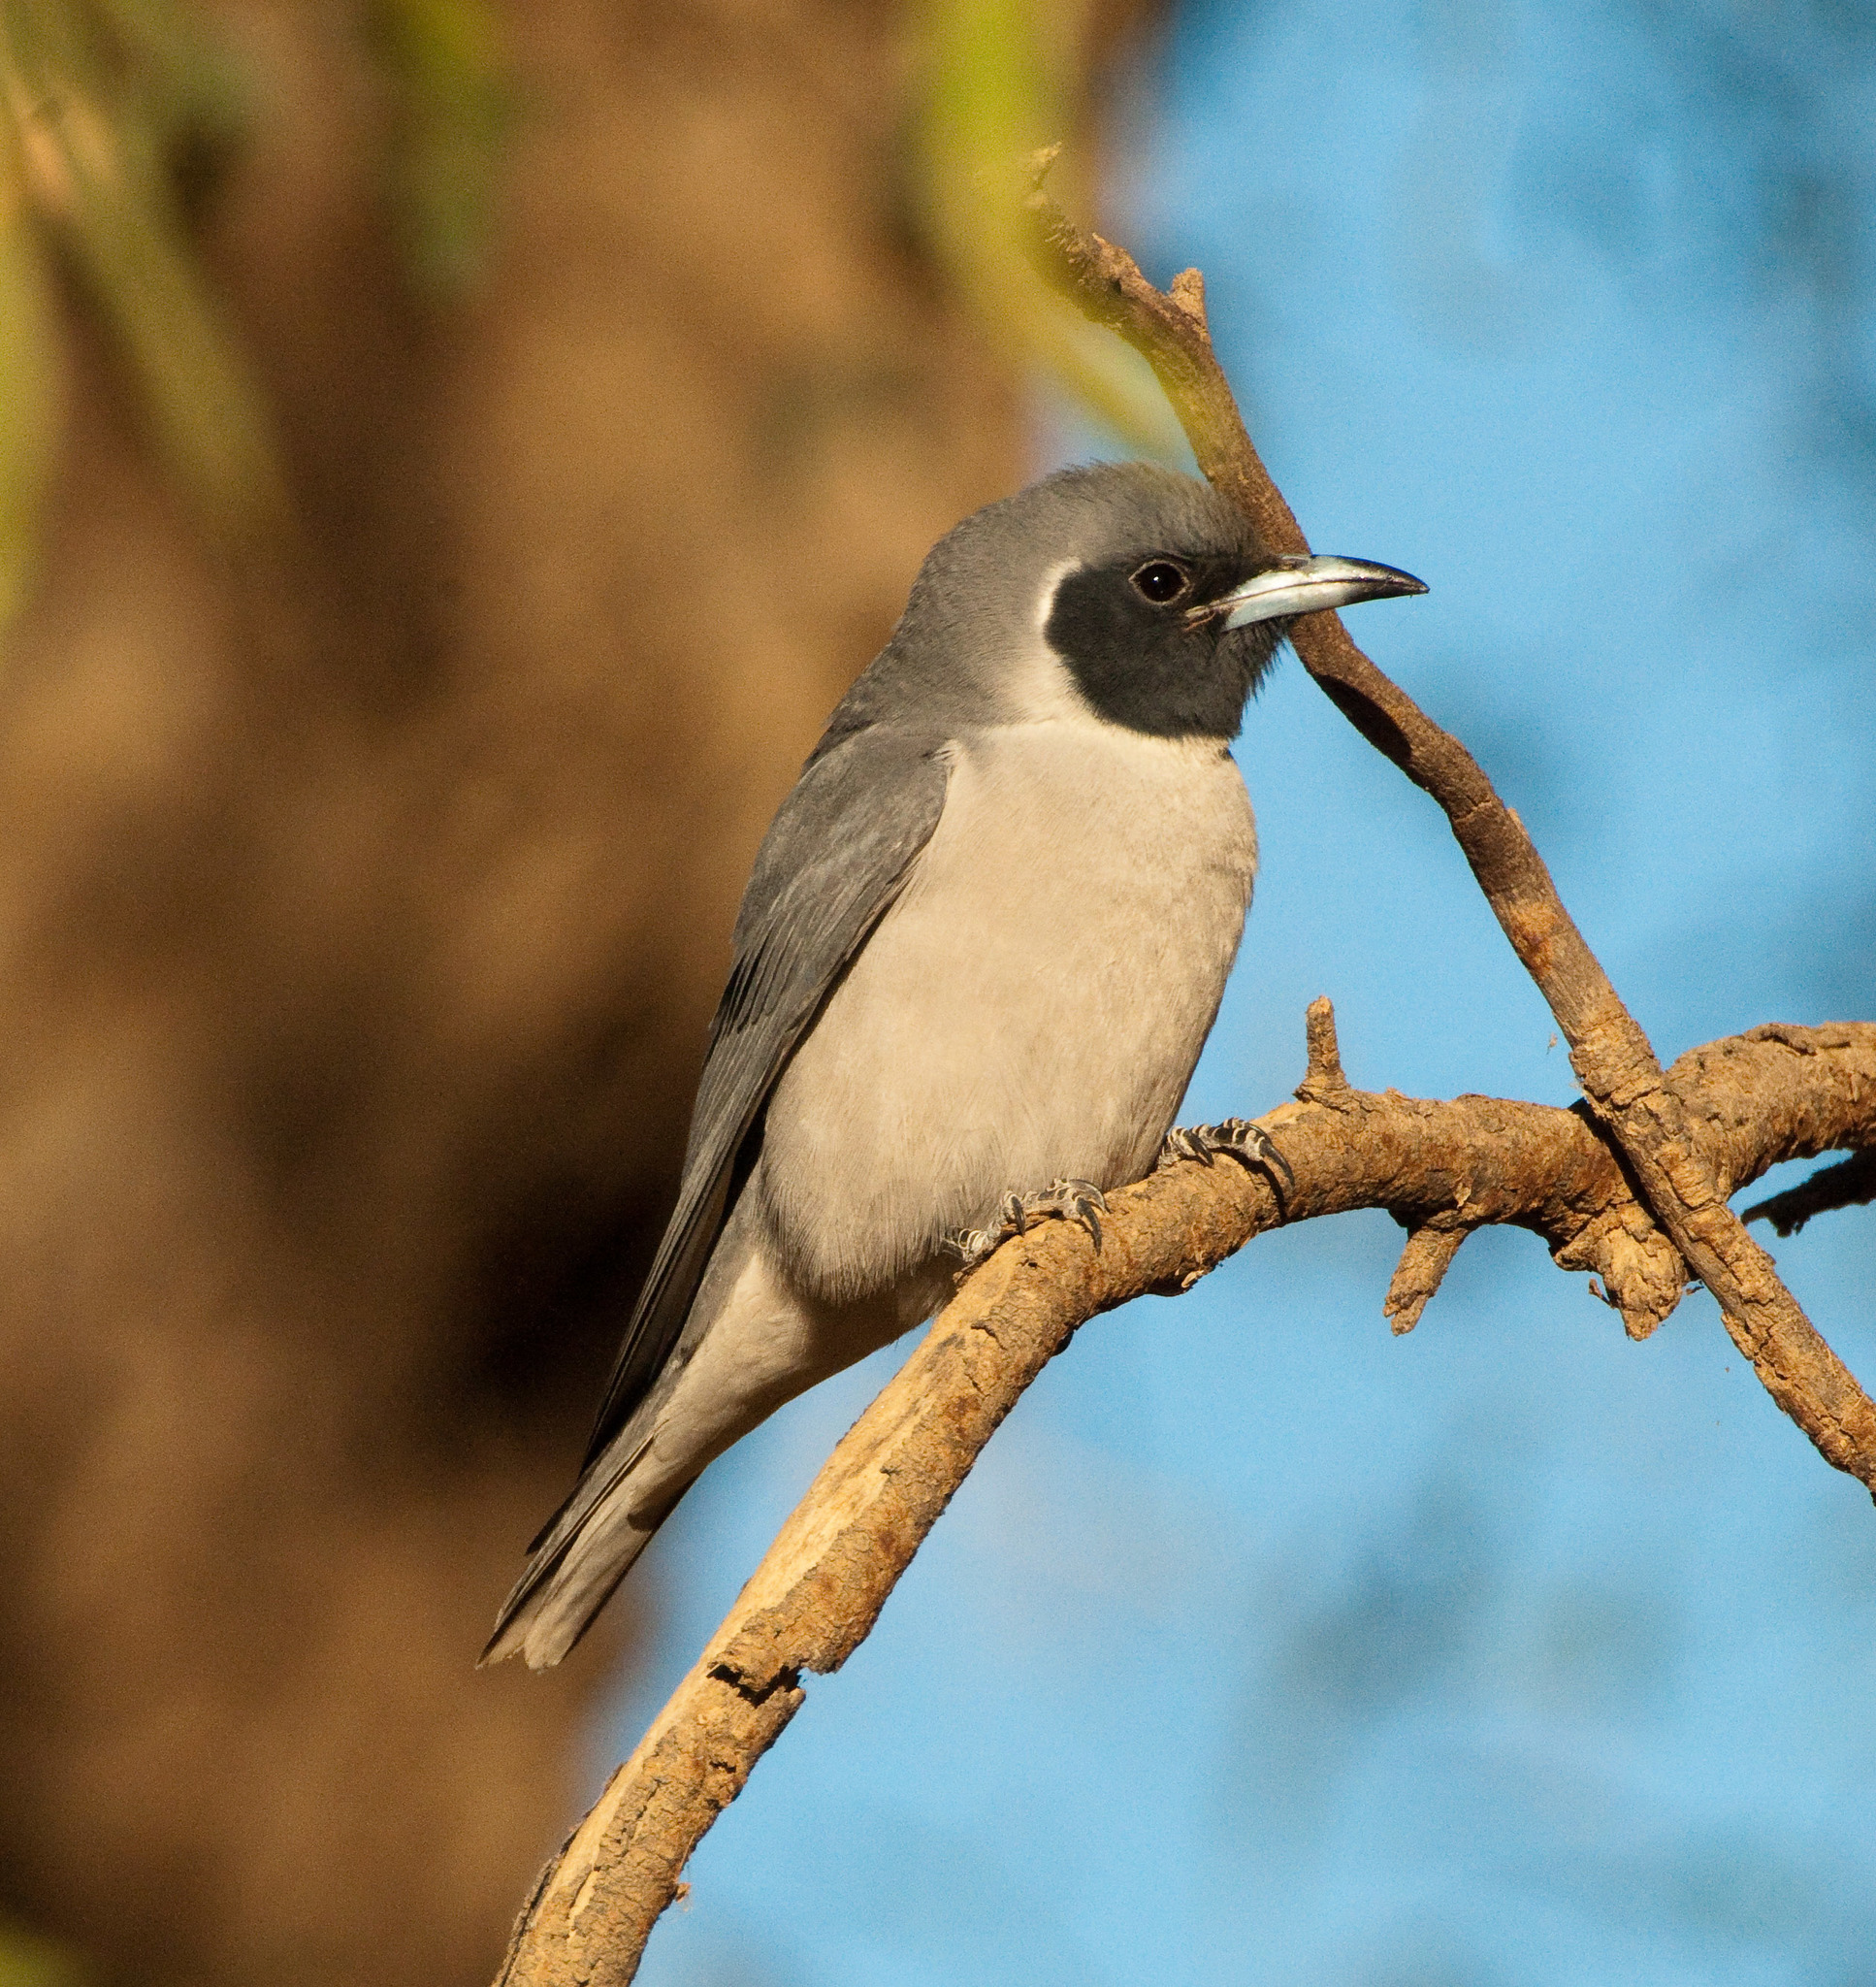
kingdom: Animalia
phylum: Chordata
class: Aves
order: Passeriformes
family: Artamidae
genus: Artamus
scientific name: Artamus personatus
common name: Masked woodswallow
